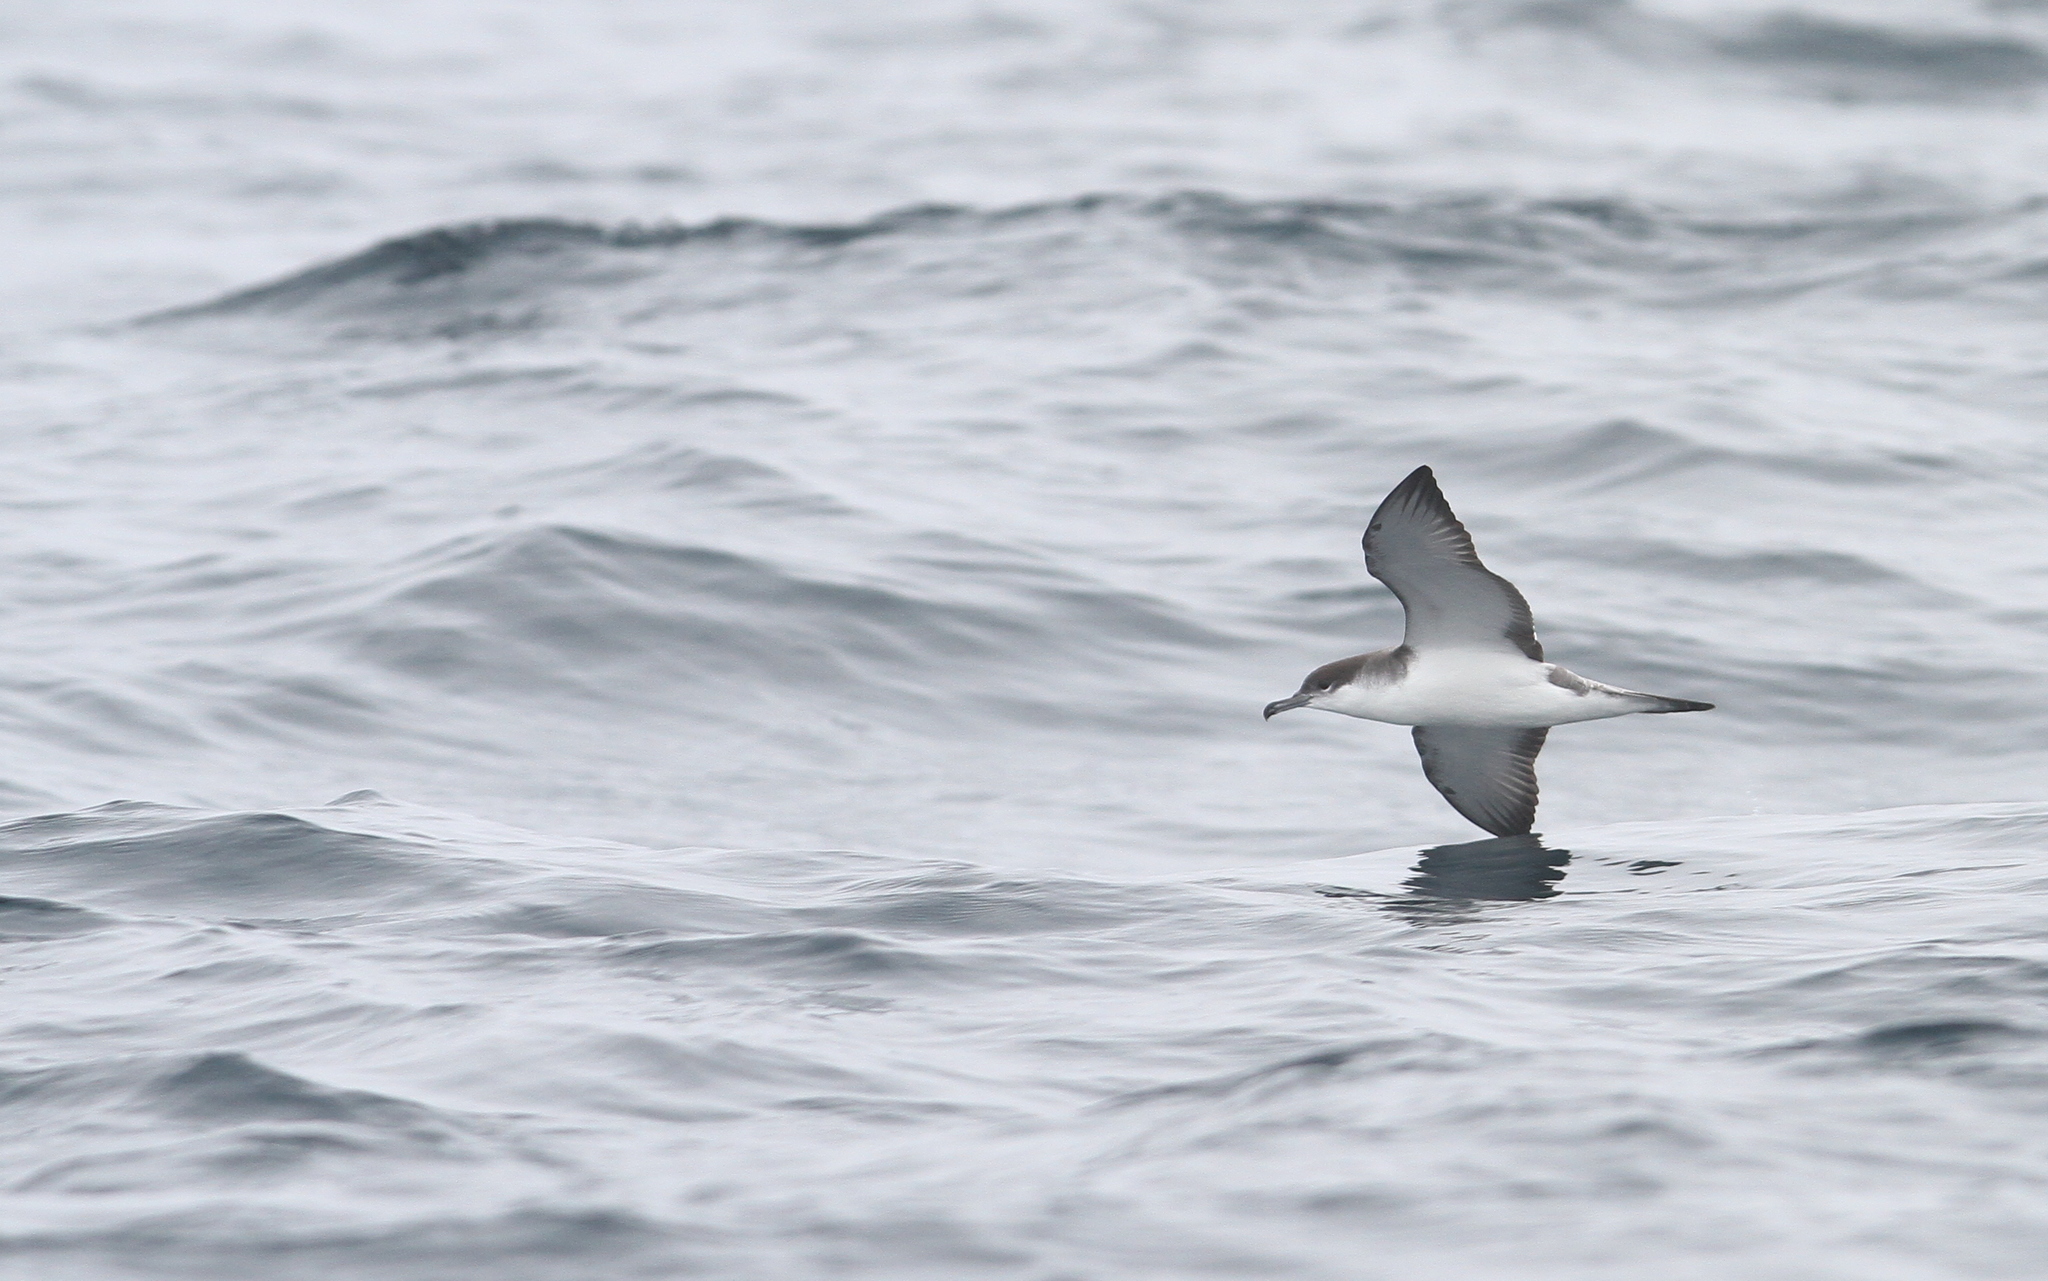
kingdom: Animalia
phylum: Chordata
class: Aves
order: Procellariiformes
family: Procellariidae
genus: Puffinus
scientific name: Puffinus bulleri
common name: Buller's shearwater
